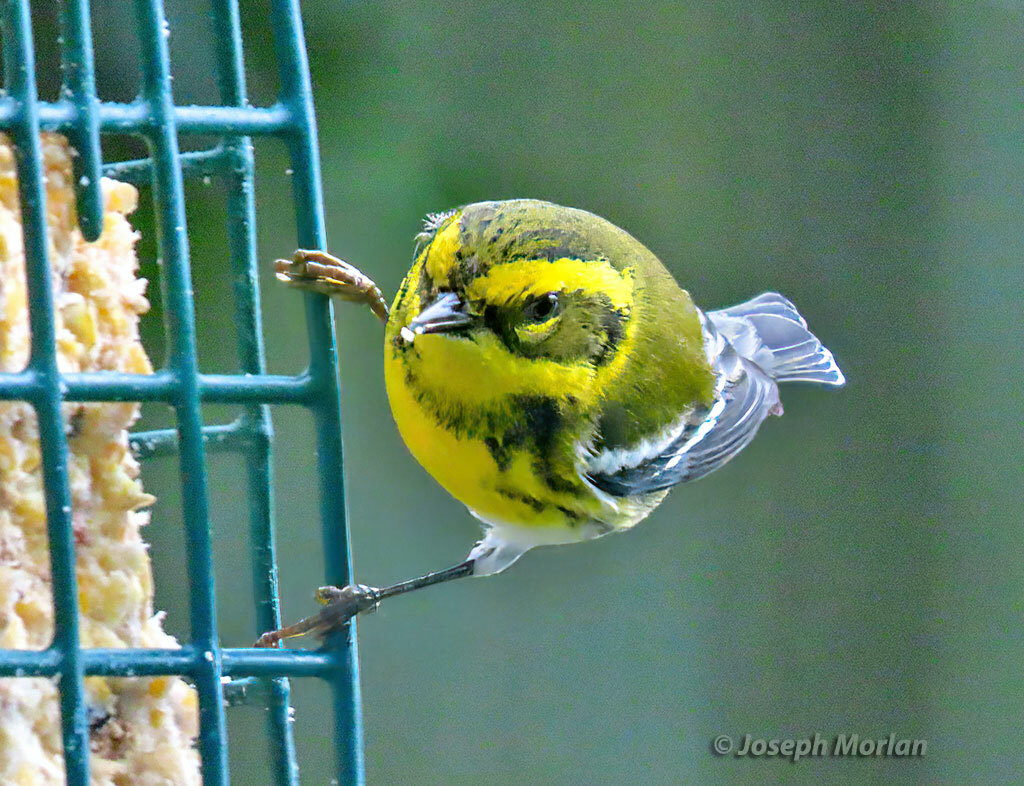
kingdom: Animalia
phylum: Chordata
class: Aves
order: Passeriformes
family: Parulidae
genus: Setophaga
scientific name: Setophaga townsendi
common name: Townsend's warbler
